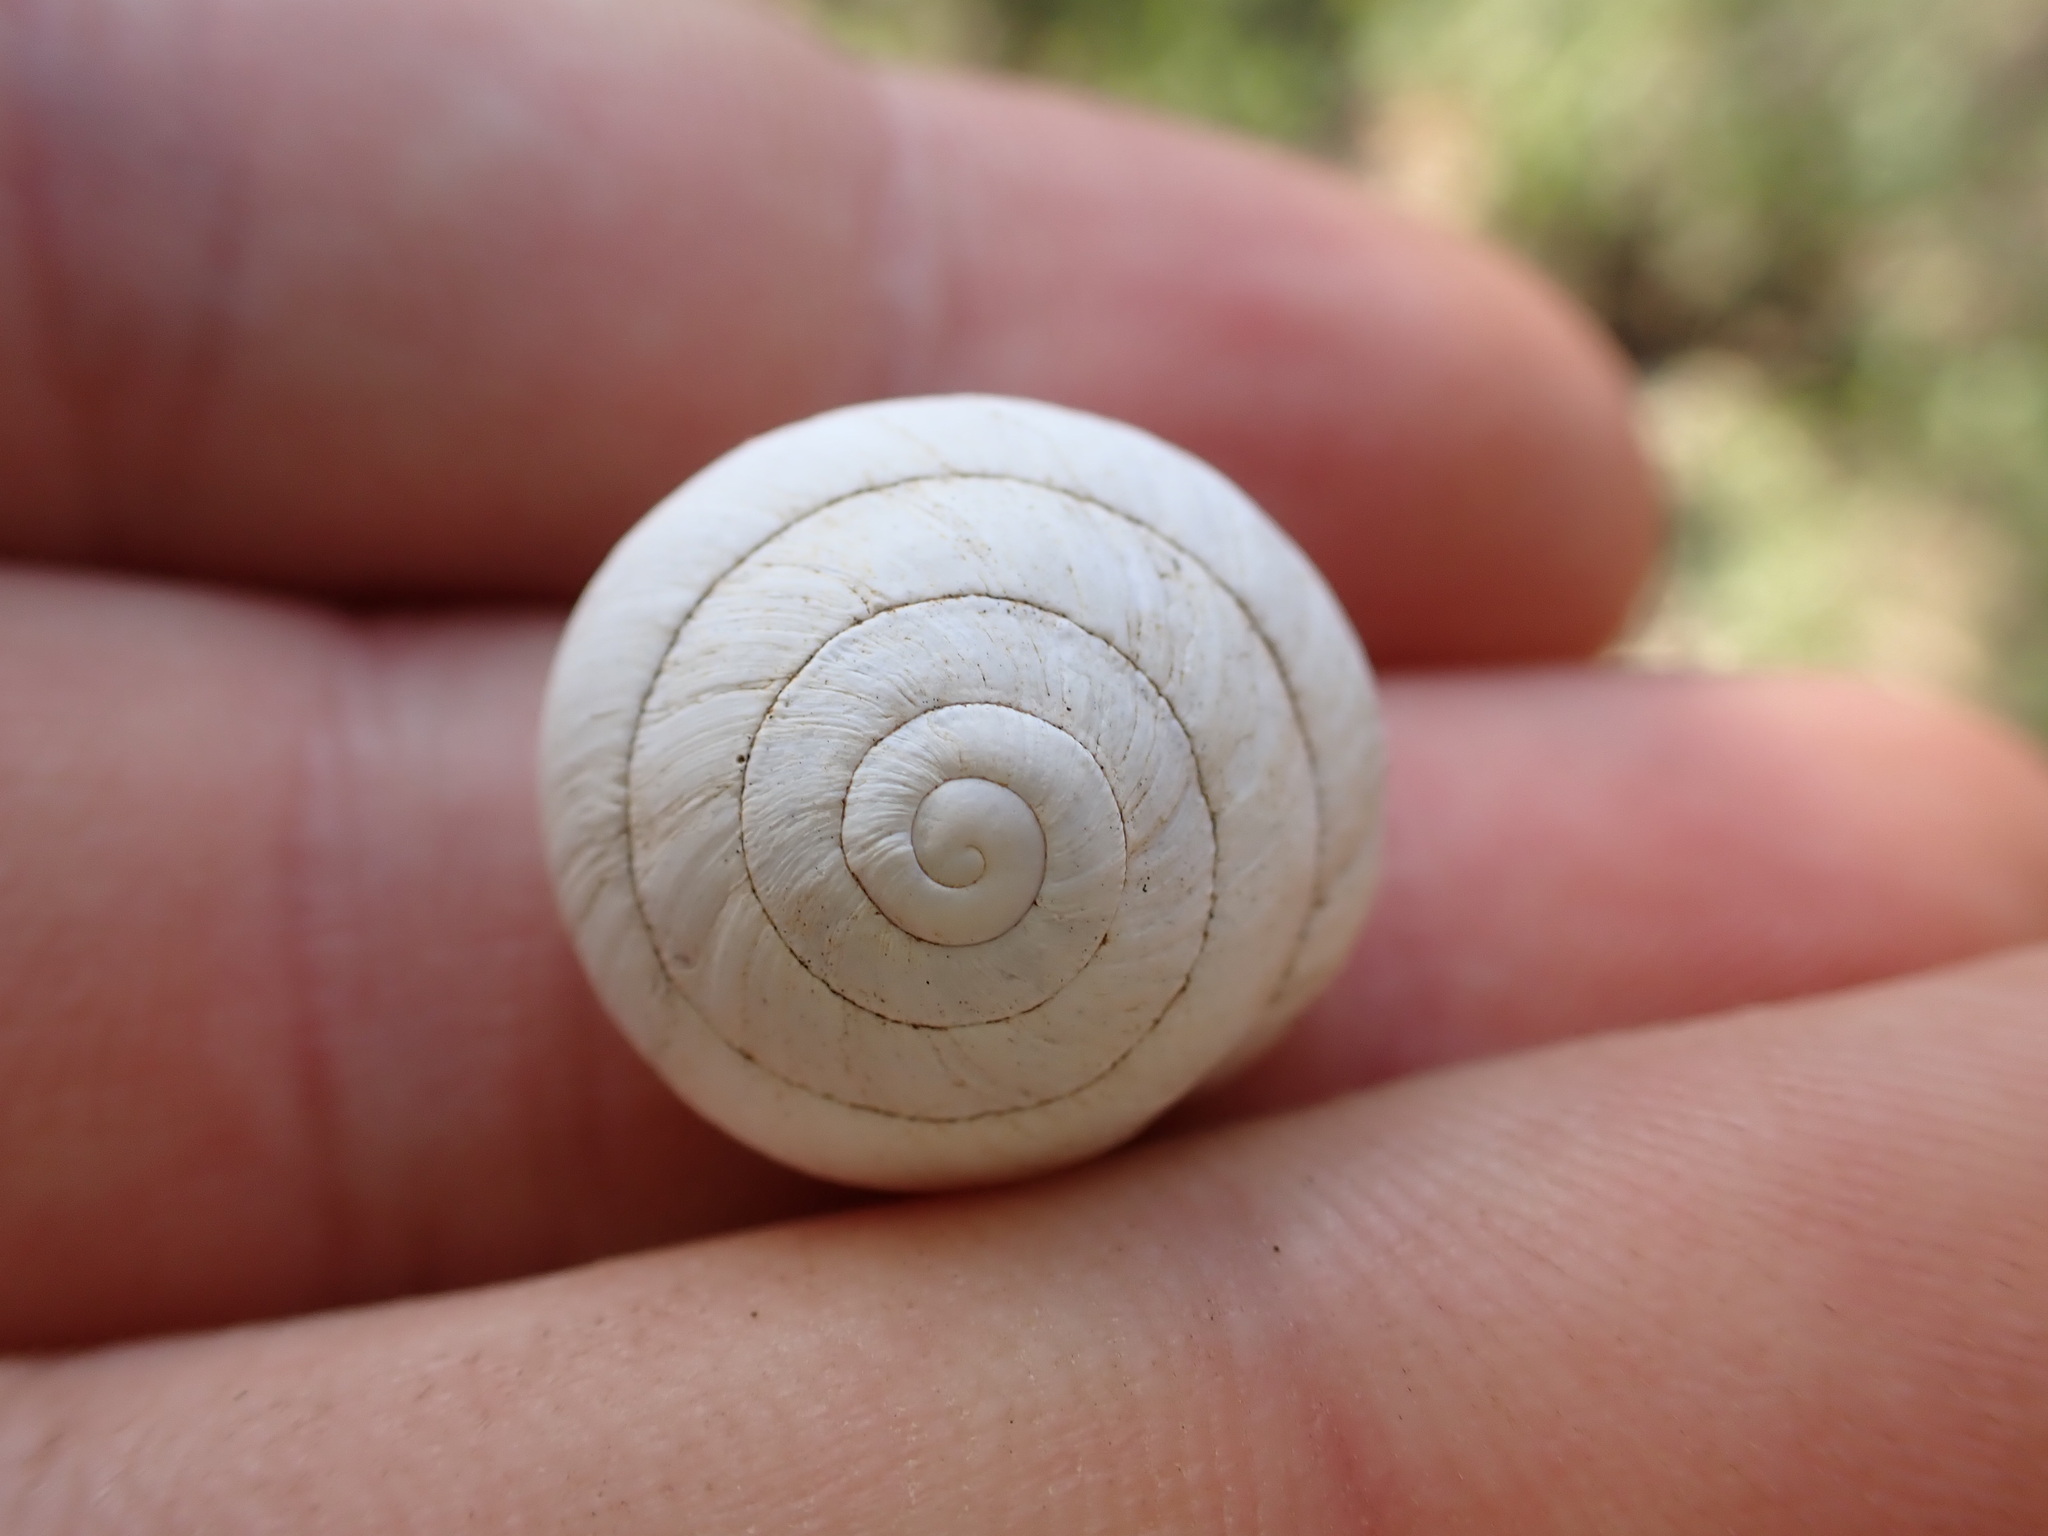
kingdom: Animalia
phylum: Mollusca
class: Gastropoda
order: Stylommatophora
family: Sphincterochilidae
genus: Sphincterochila
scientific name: Sphincterochila candidissima
